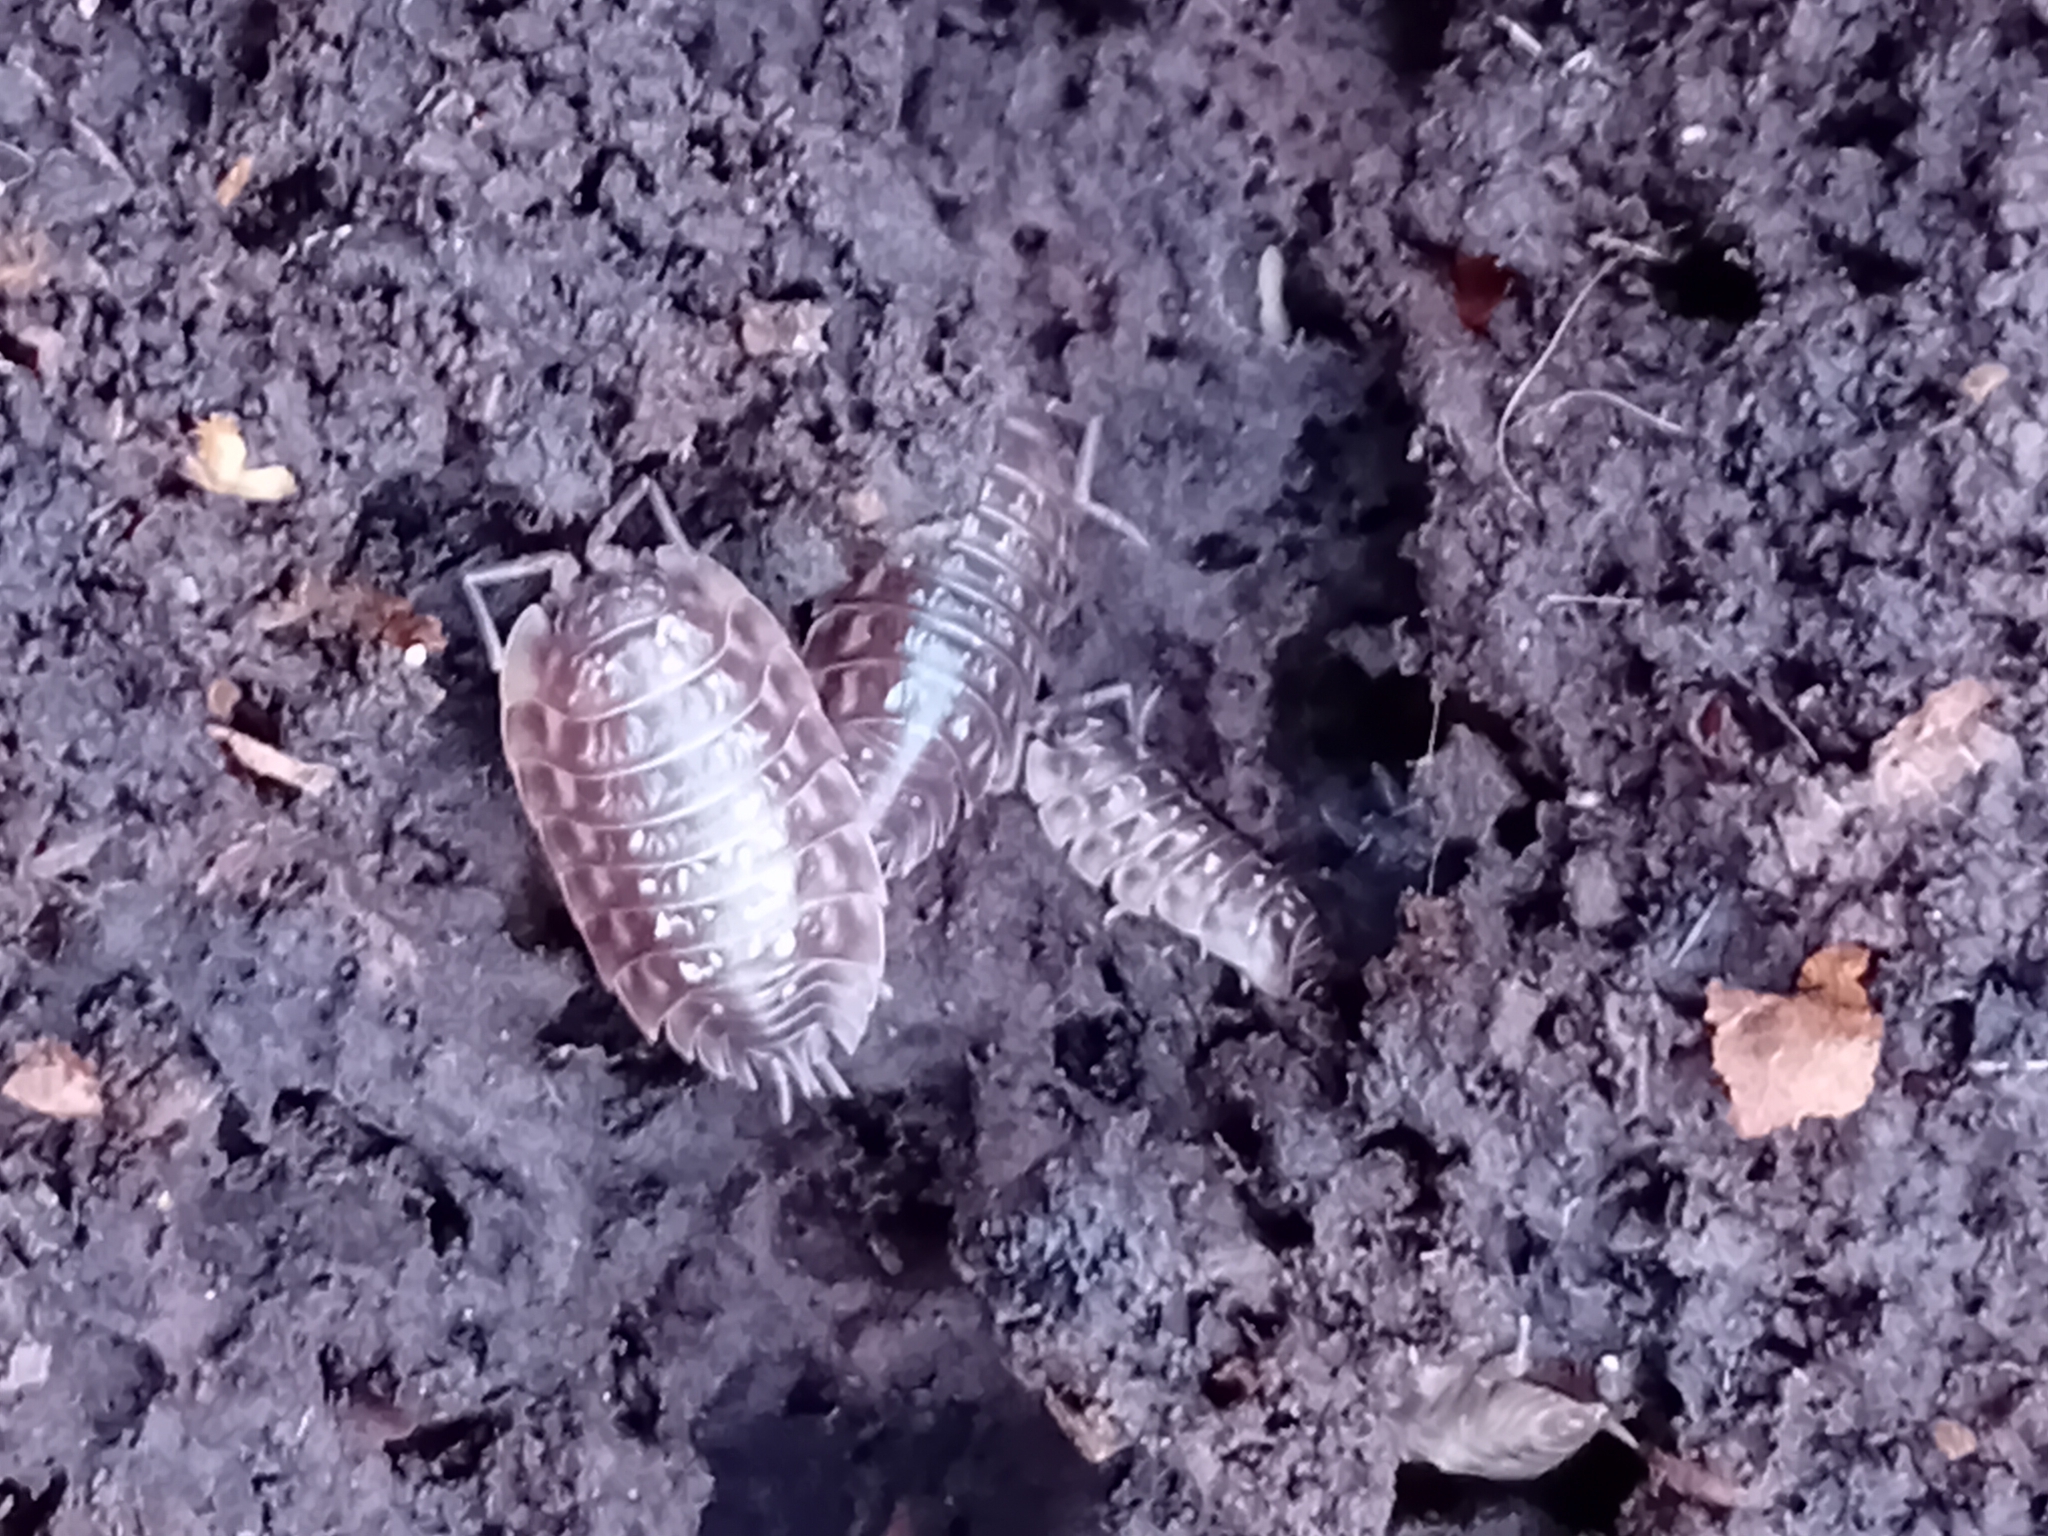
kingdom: Animalia
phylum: Arthropoda
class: Malacostraca
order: Isopoda
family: Oniscidae
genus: Oniscus
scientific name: Oniscus asellus
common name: Common shiny woodlouse
